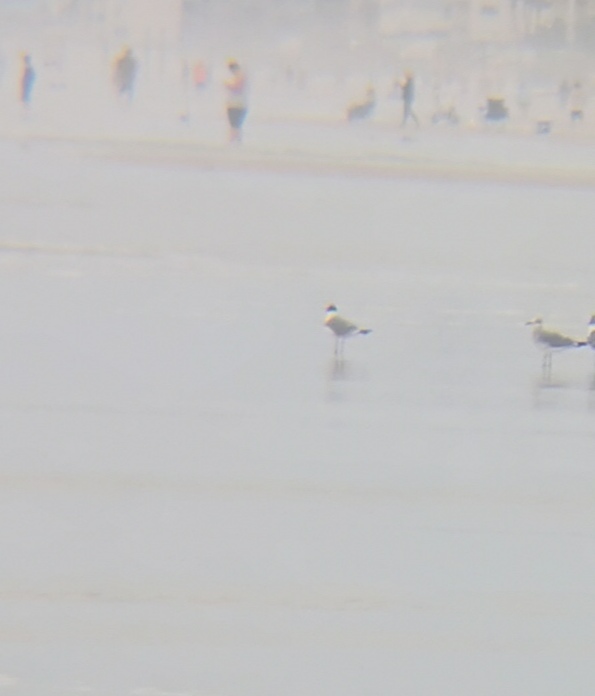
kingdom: Animalia
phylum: Chordata
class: Aves
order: Charadriiformes
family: Laridae
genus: Leucophaeus
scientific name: Leucophaeus atricilla
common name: Laughing gull
